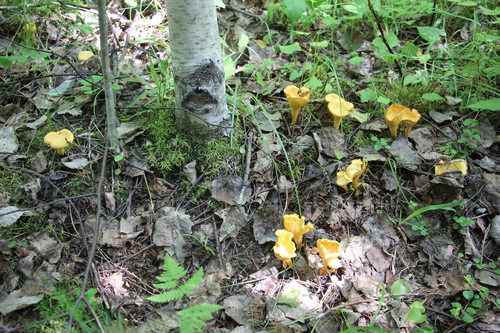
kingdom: Fungi
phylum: Basidiomycota
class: Agaricomycetes
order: Cantharellales
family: Hydnaceae
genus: Cantharellus
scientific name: Cantharellus cibarius
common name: Chanterelle
